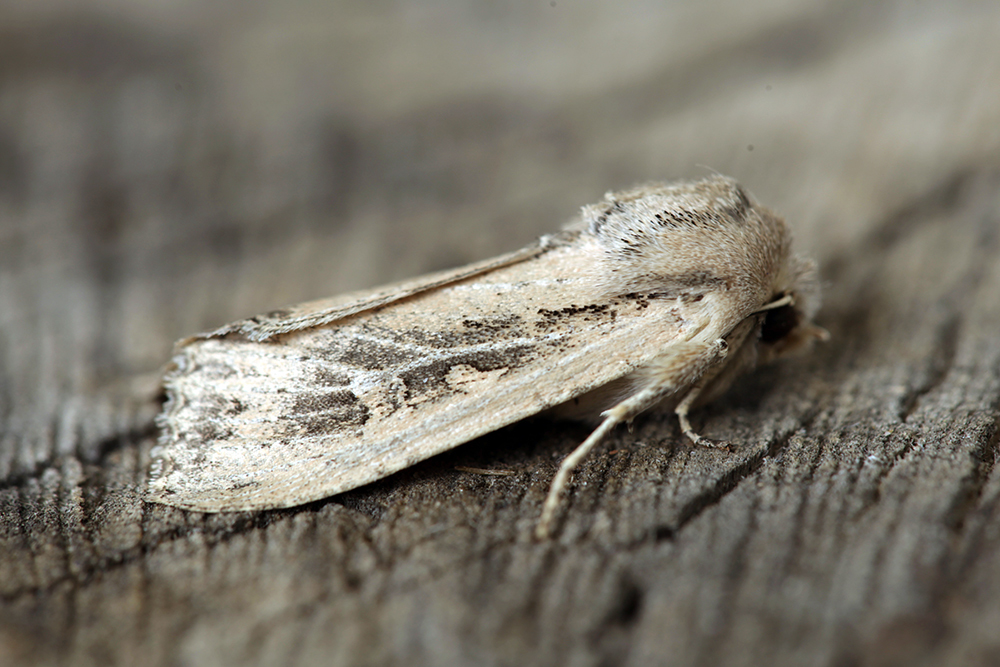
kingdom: Animalia
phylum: Arthropoda
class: Insecta
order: Lepidoptera
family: Noctuidae
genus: Fabula
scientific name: Fabula zollikoferi
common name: Scarce arches
